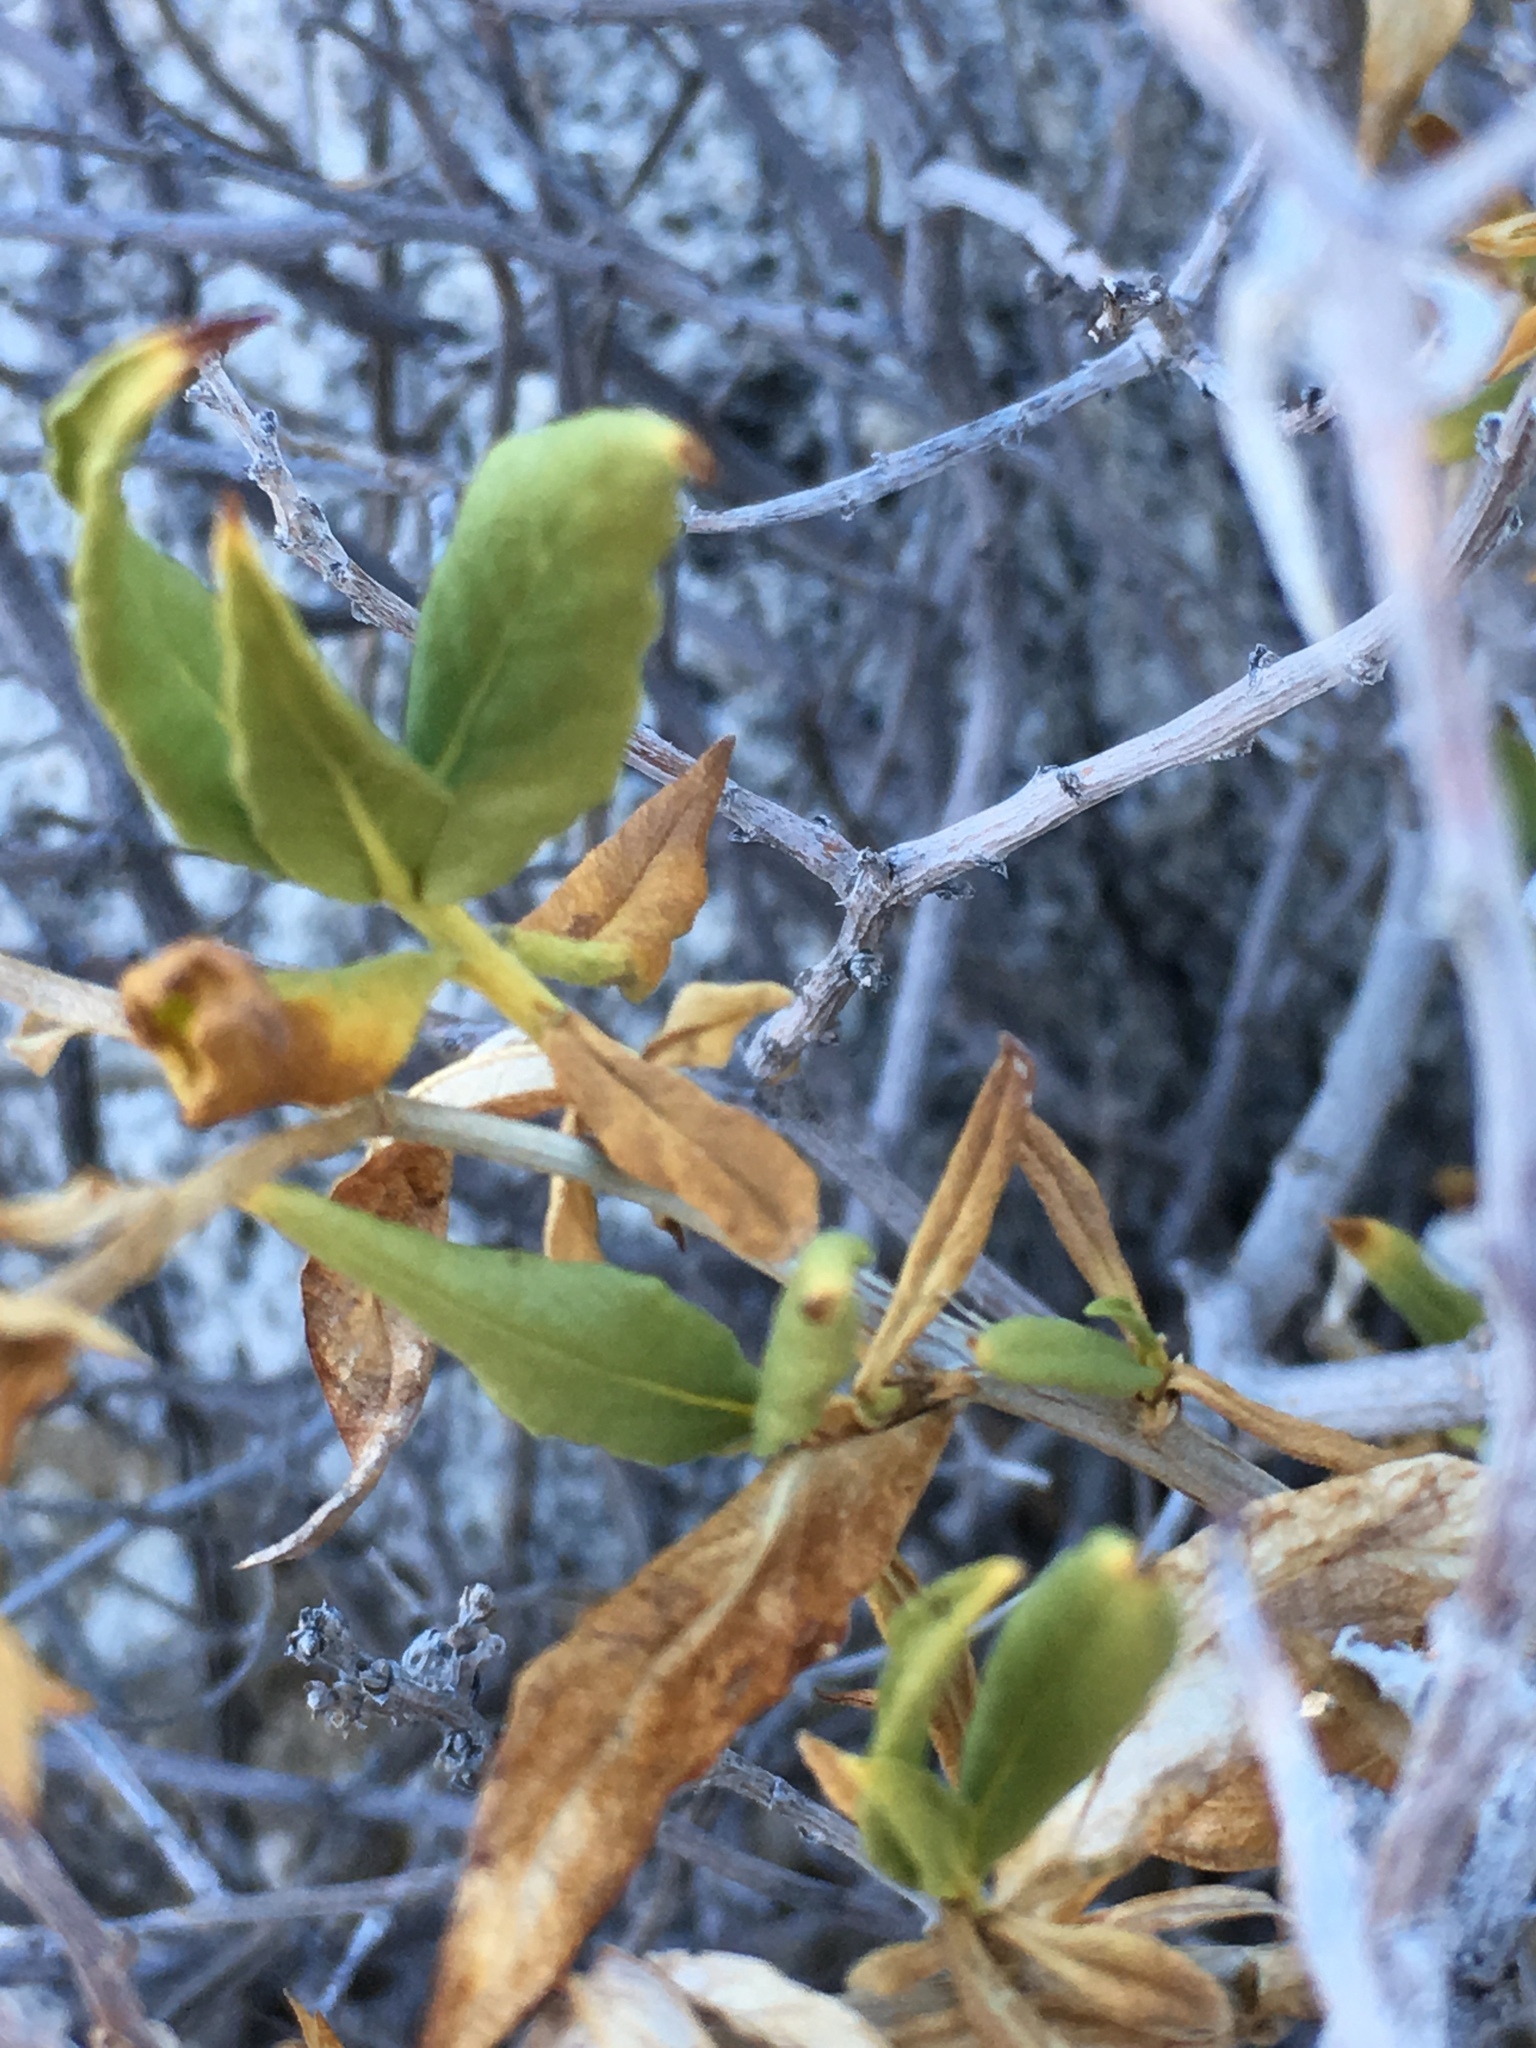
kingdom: Plantae
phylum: Tracheophyta
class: Magnoliopsida
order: Asterales
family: Asteraceae
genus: Trixis
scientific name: Trixis californica
